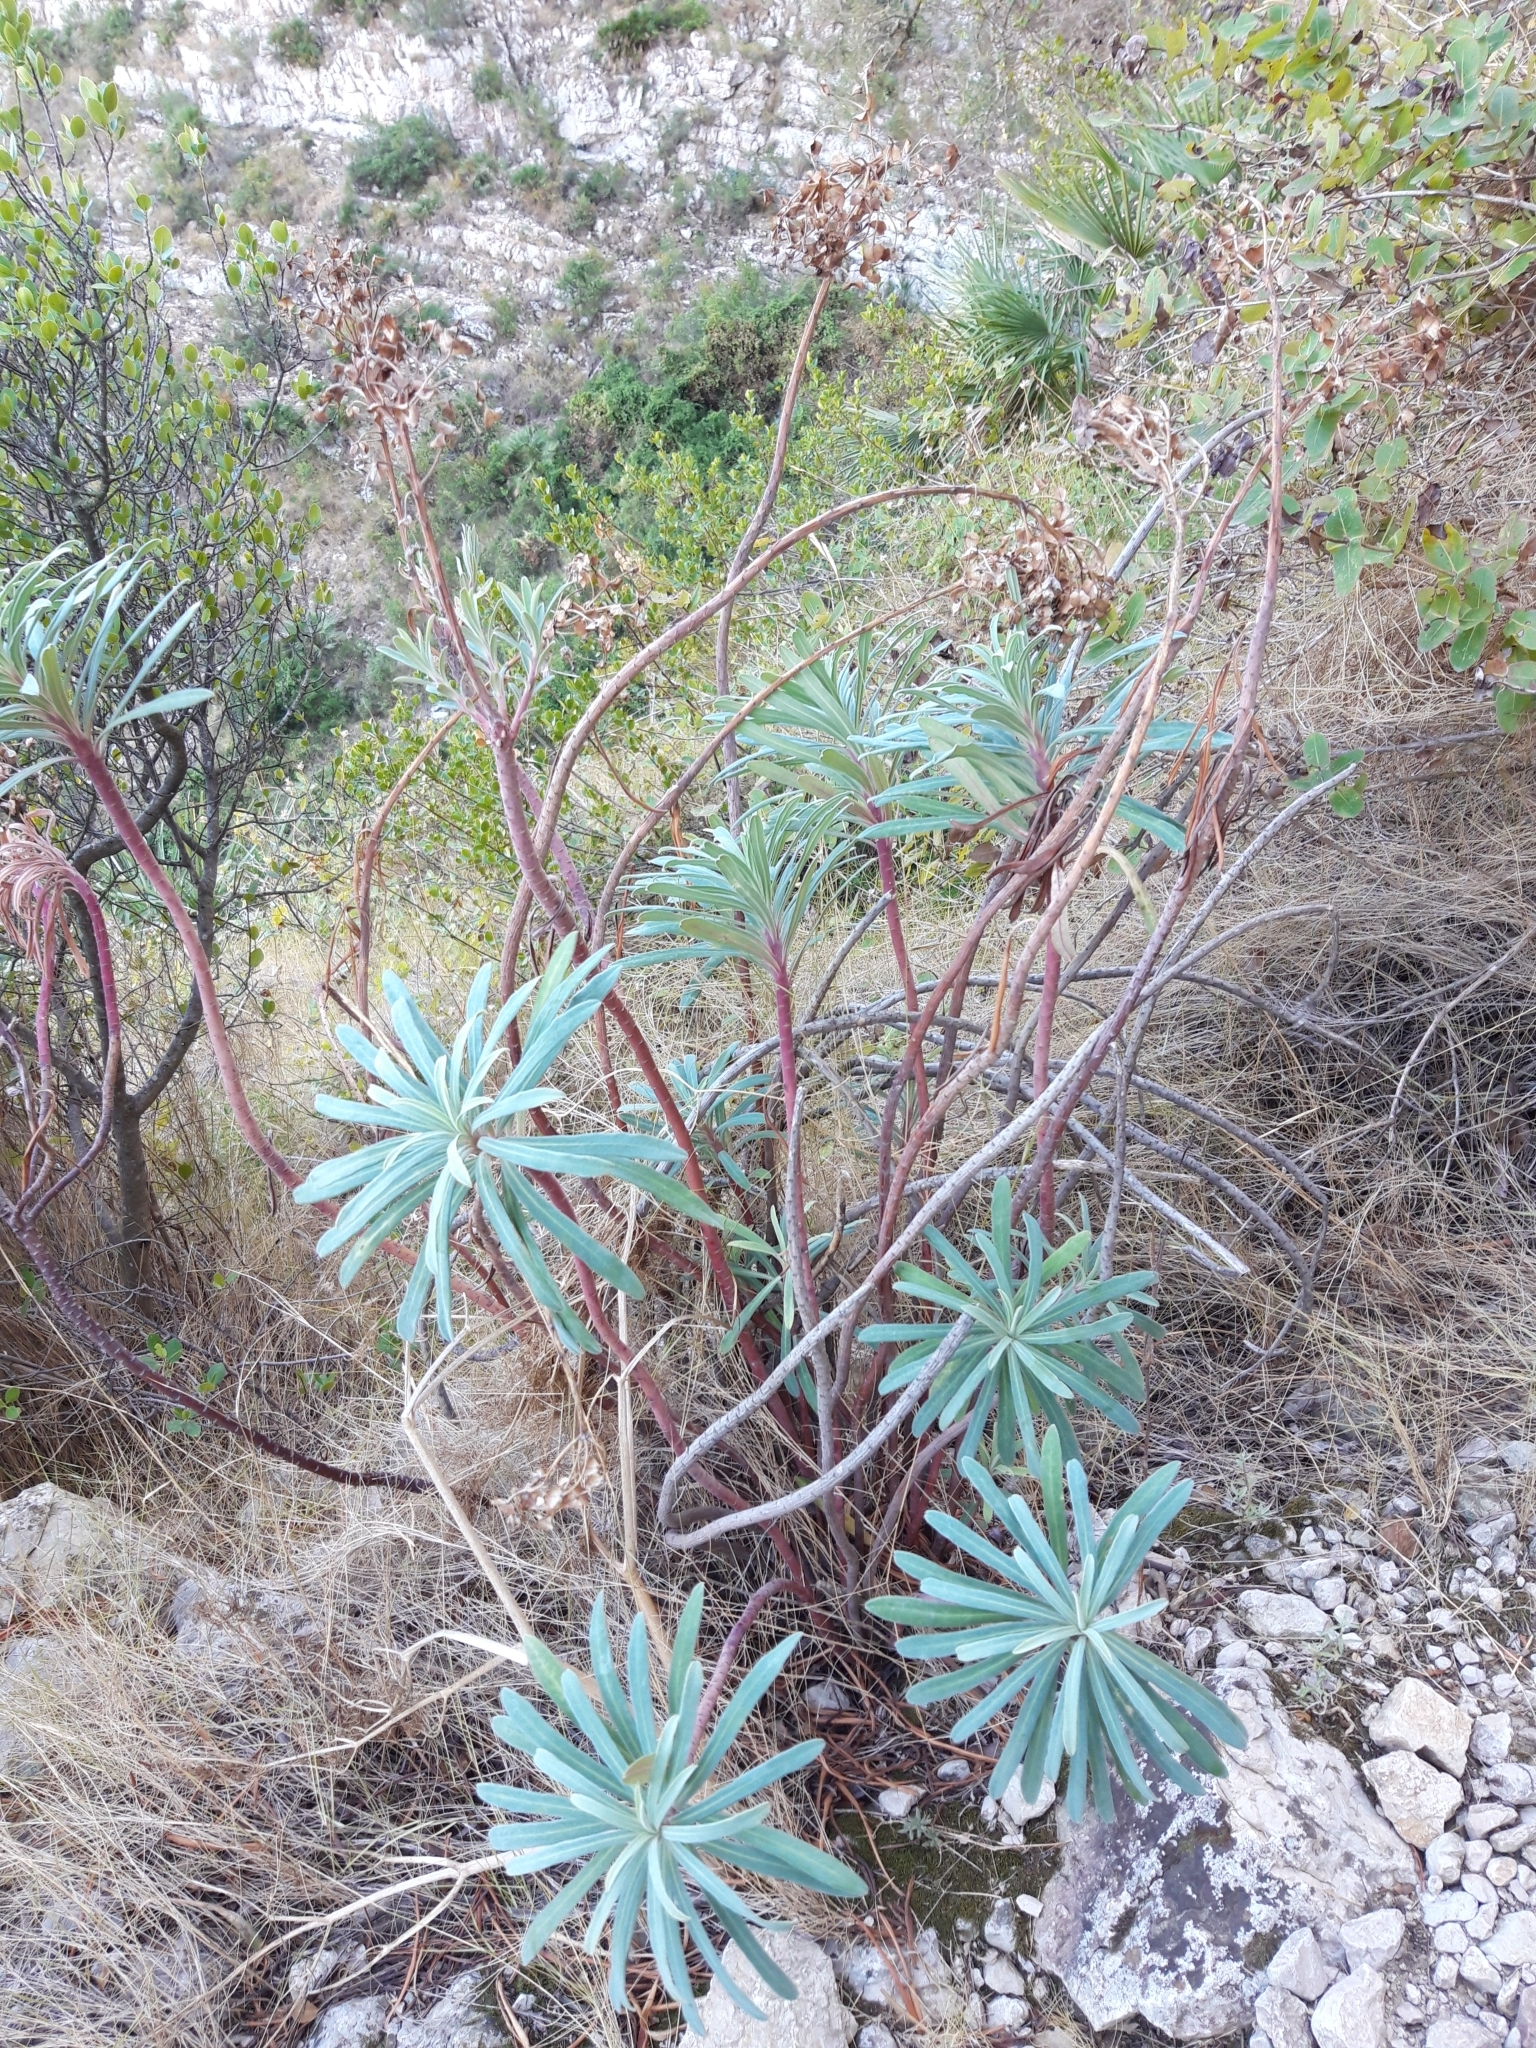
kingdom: Plantae
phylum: Tracheophyta
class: Magnoliopsida
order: Malpighiales
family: Euphorbiaceae
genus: Euphorbia
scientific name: Euphorbia characias
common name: Mediterranean spurge
